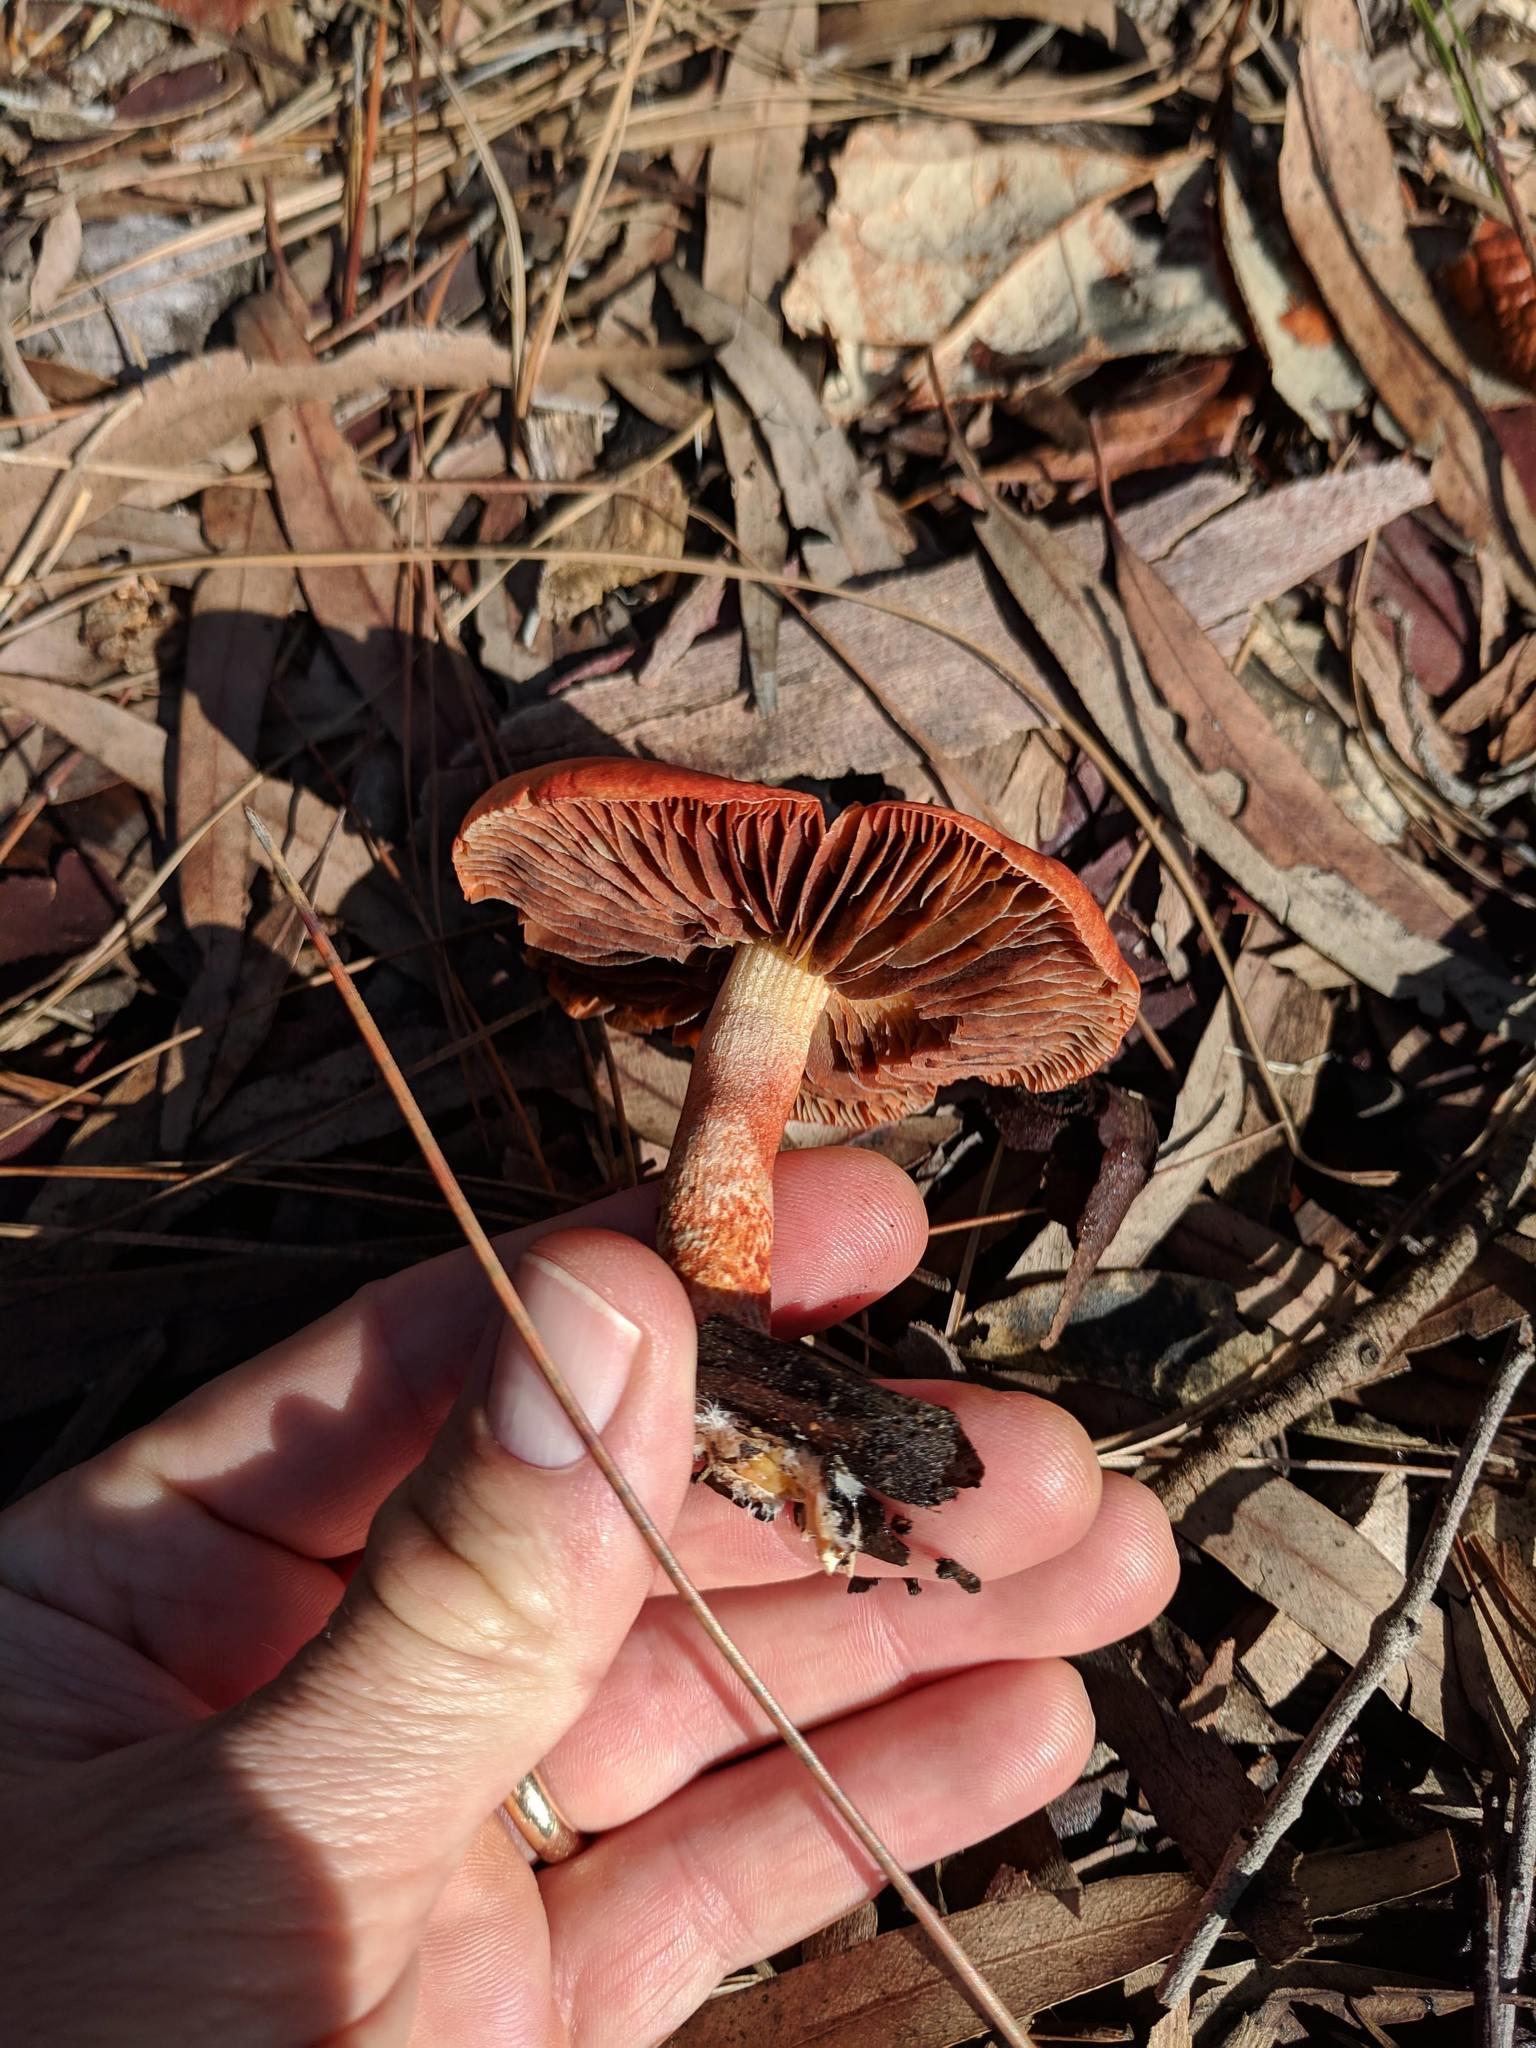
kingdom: Fungi
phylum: Basidiomycota
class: Agaricomycetes
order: Agaricales
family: Strophariaceae
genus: Leratiomyces
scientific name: Leratiomyces ceres
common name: Redlead roundhead
